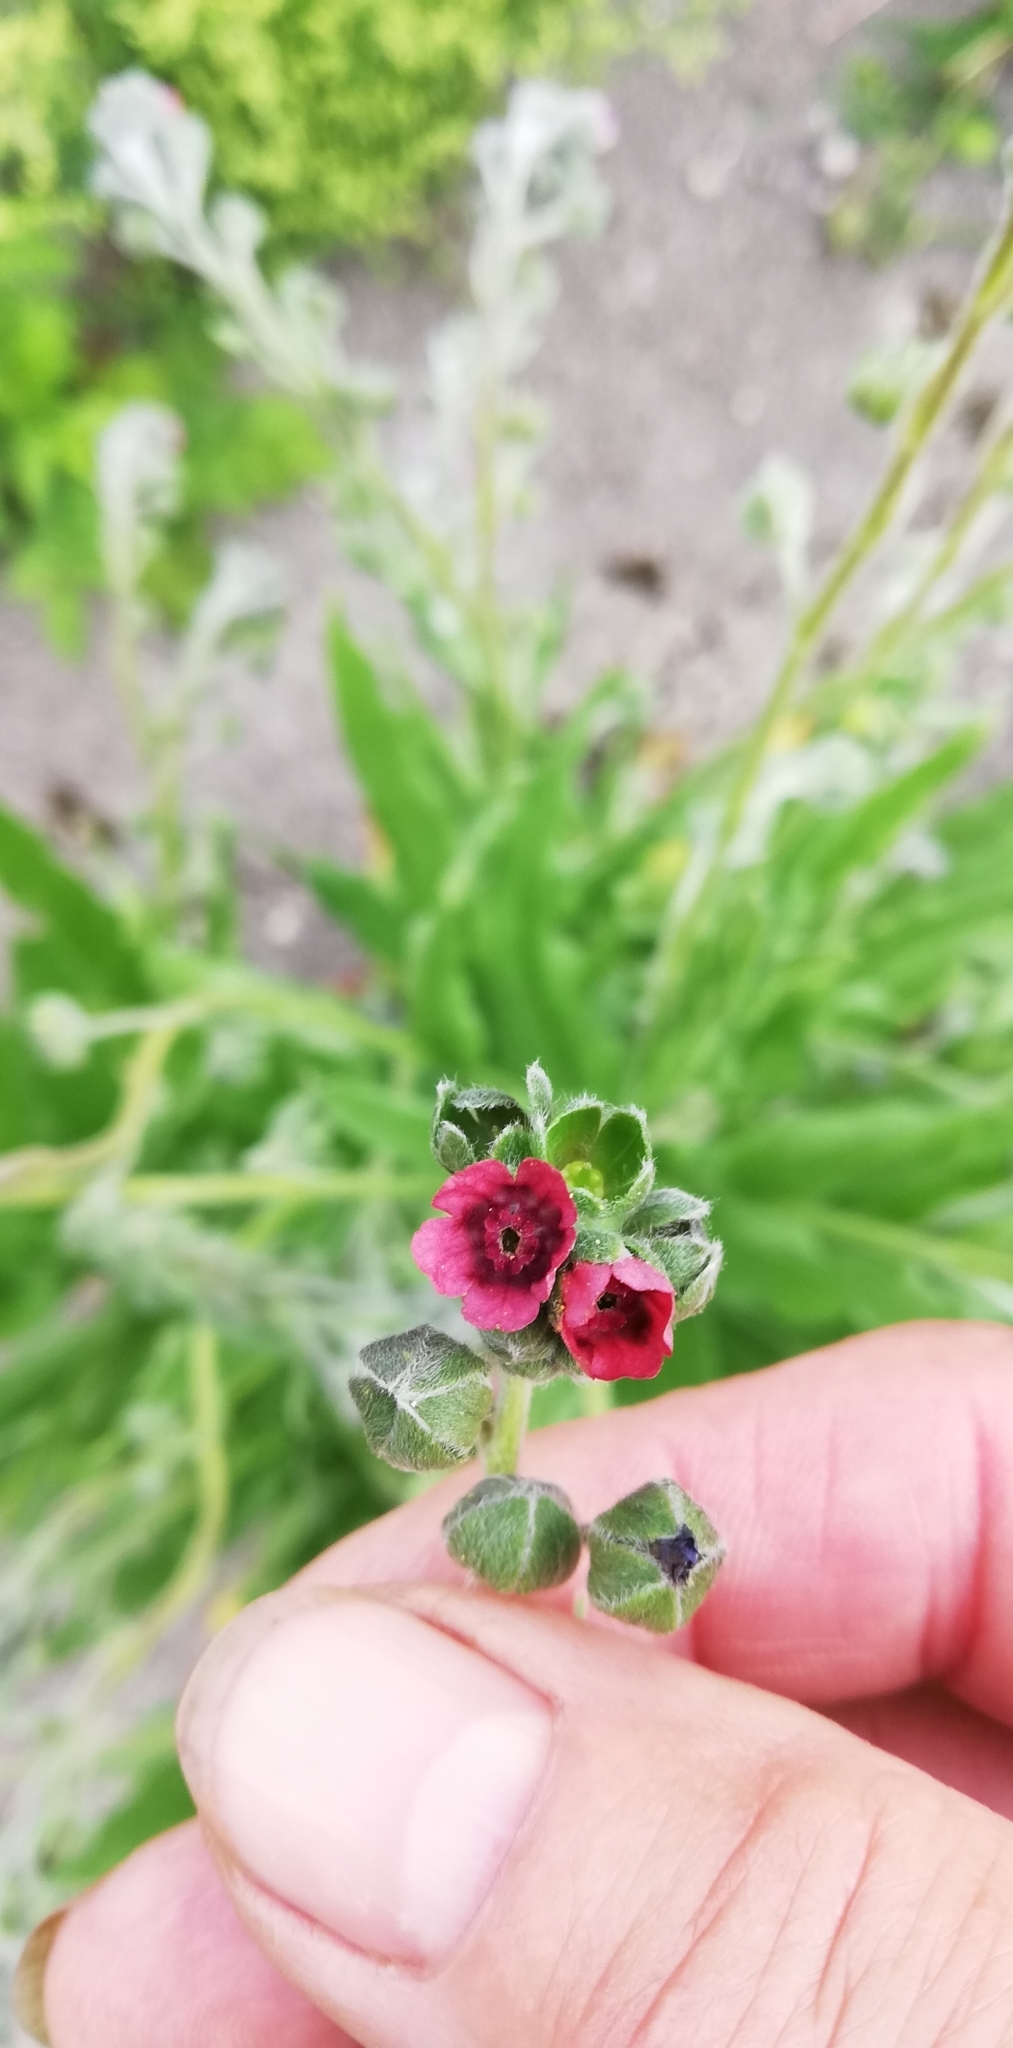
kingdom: Plantae
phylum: Tracheophyta
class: Magnoliopsida
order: Boraginales
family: Boraginaceae
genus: Cynoglossum
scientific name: Cynoglossum officinale
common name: Hound's-tongue
